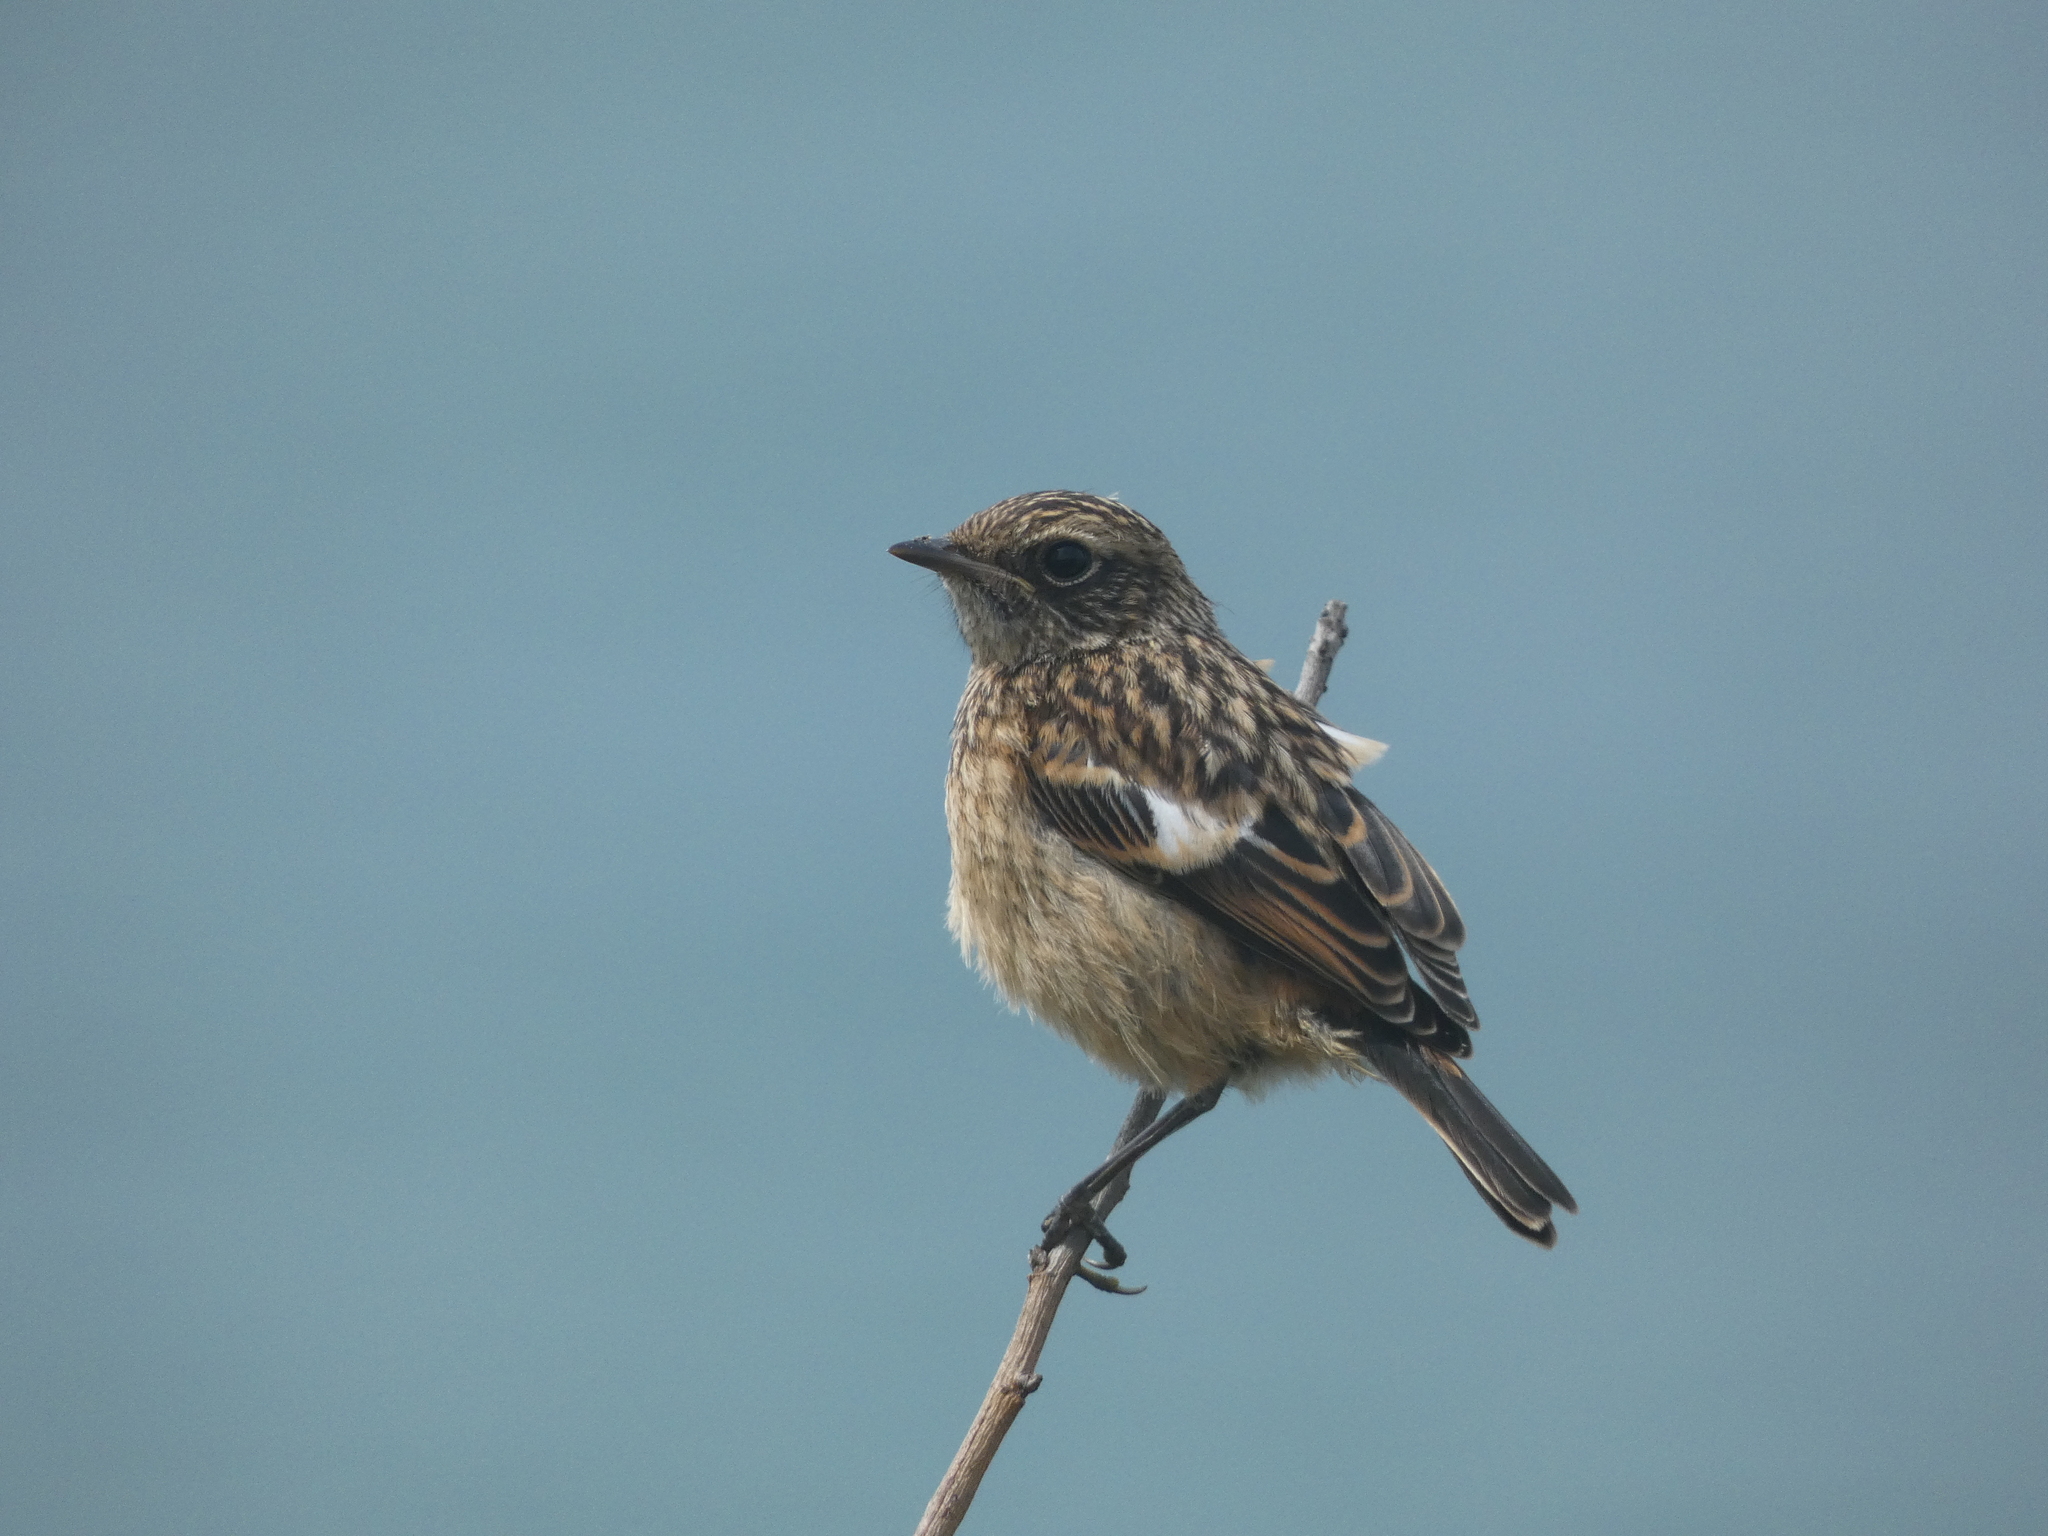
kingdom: Animalia
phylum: Chordata
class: Aves
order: Passeriformes
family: Muscicapidae
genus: Saxicola
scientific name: Saxicola rubicola
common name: European stonechat
